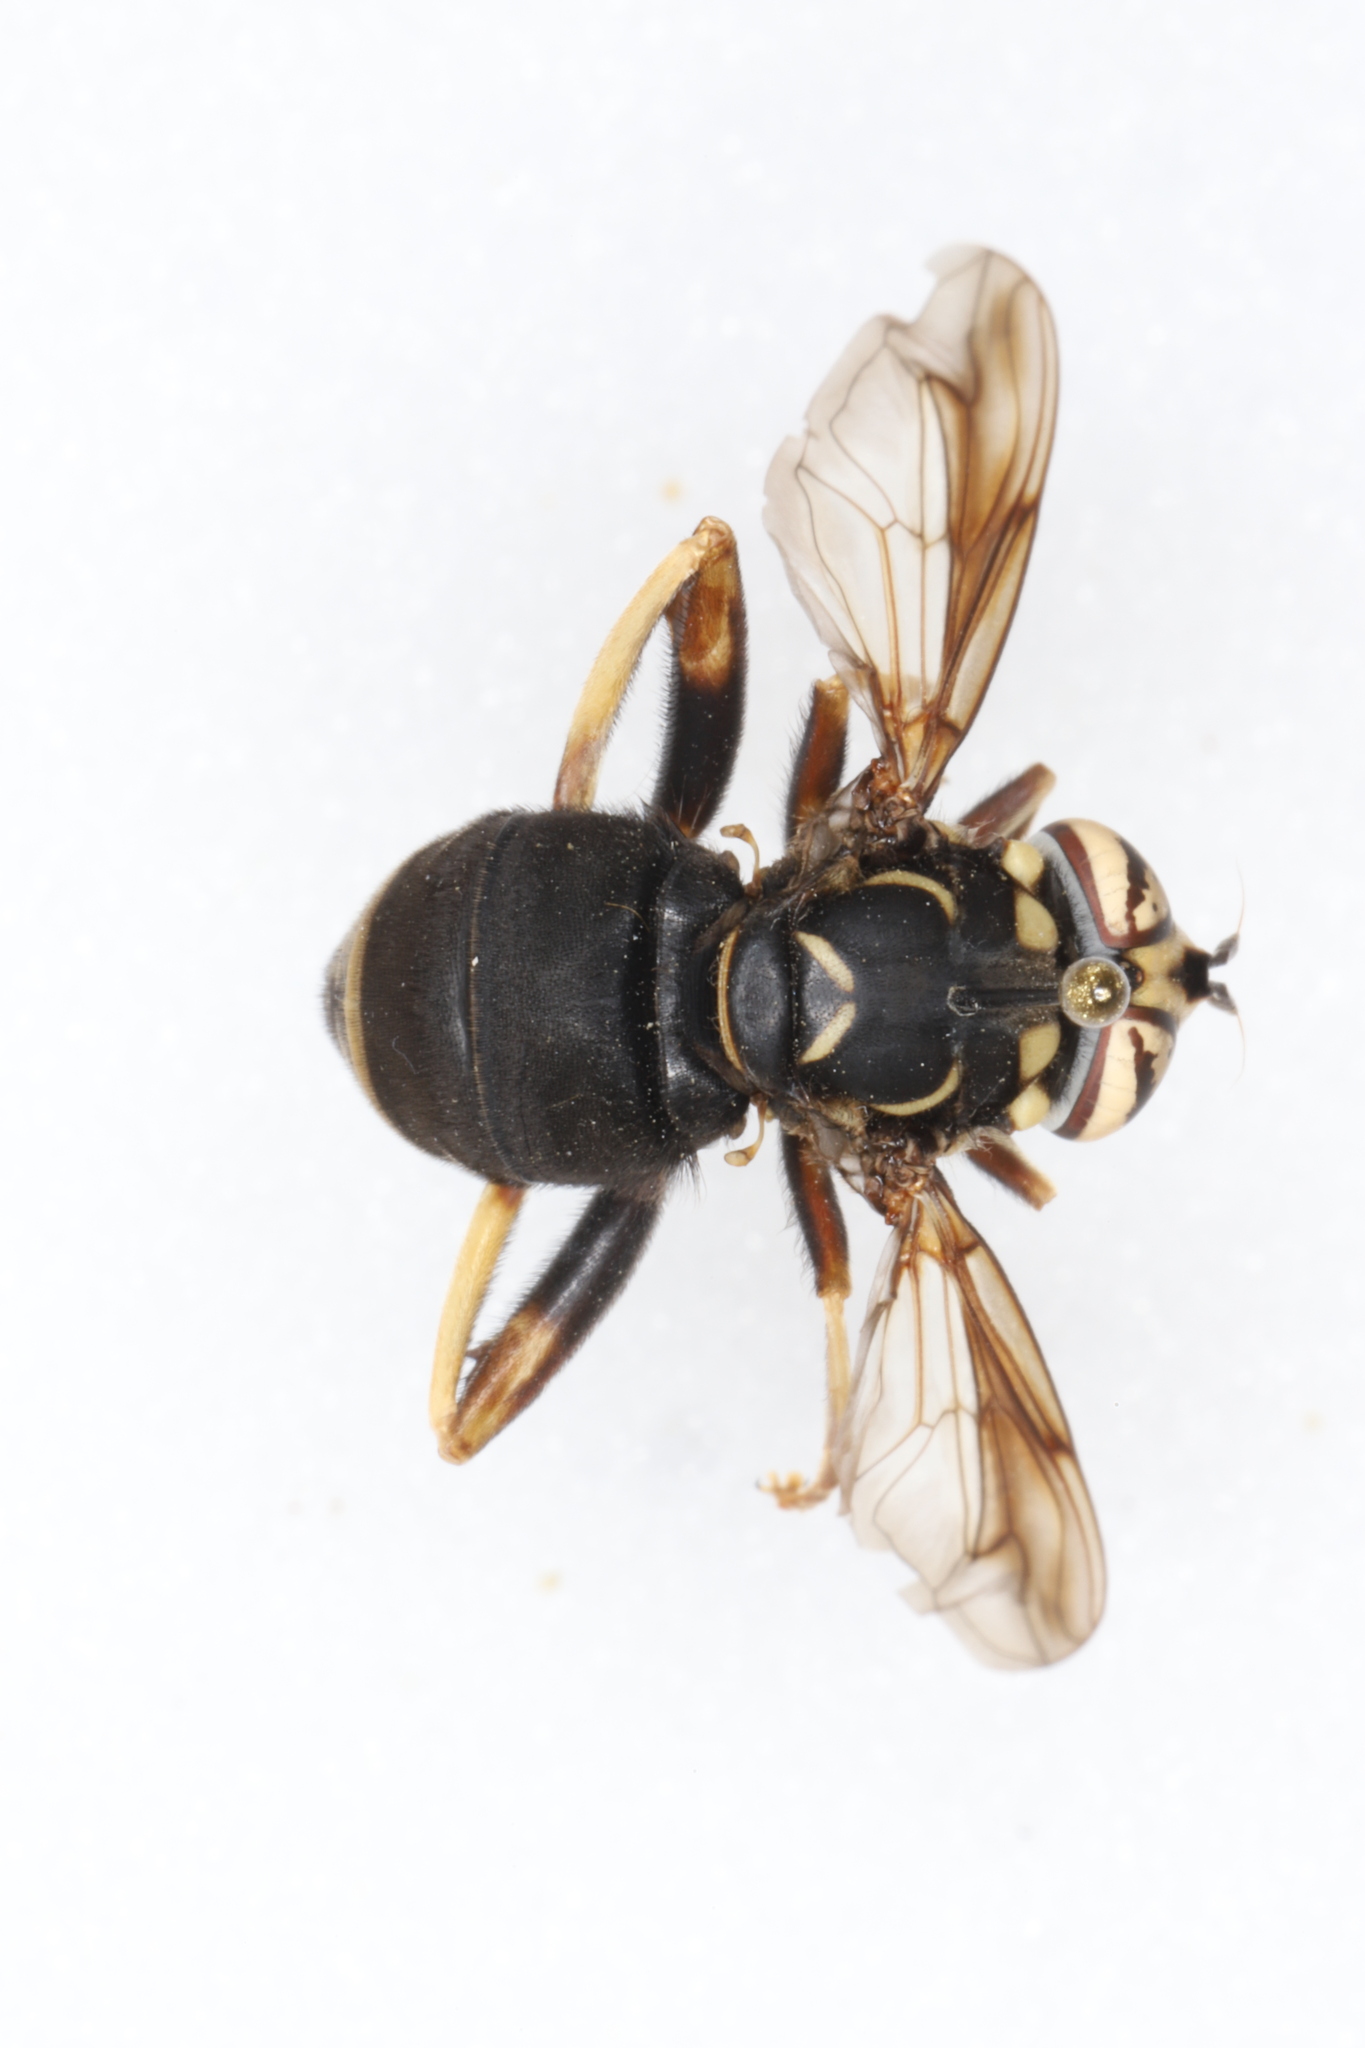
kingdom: Animalia
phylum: Arthropoda
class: Insecta
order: Diptera
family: Syrphidae
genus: Spilomyia
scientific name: Spilomyia fusca
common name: Bald-faced hornet fly
